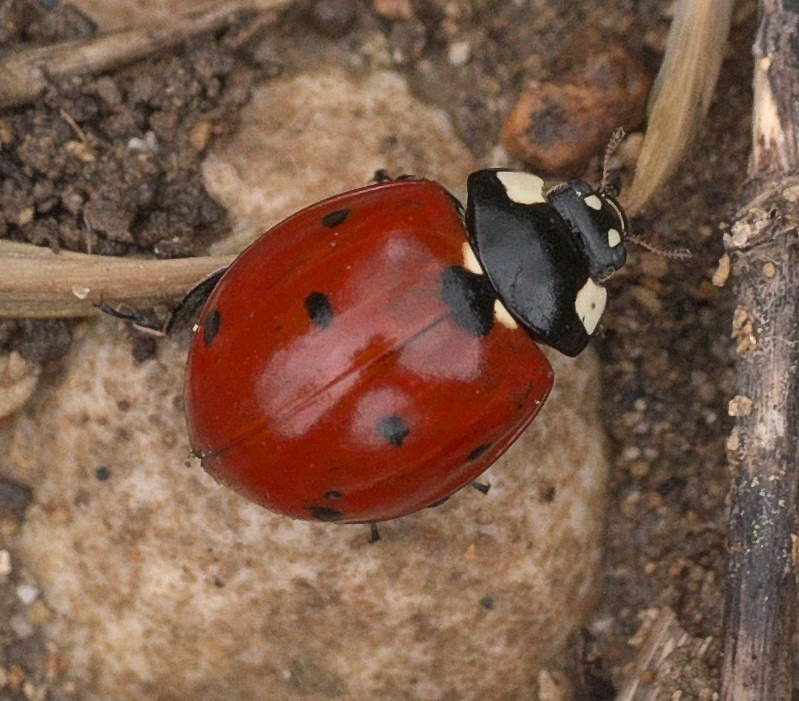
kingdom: Animalia
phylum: Arthropoda
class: Insecta
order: Coleoptera
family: Coccinellidae
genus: Coccinella
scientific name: Coccinella septempunctata
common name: Sevenspotted lady beetle
